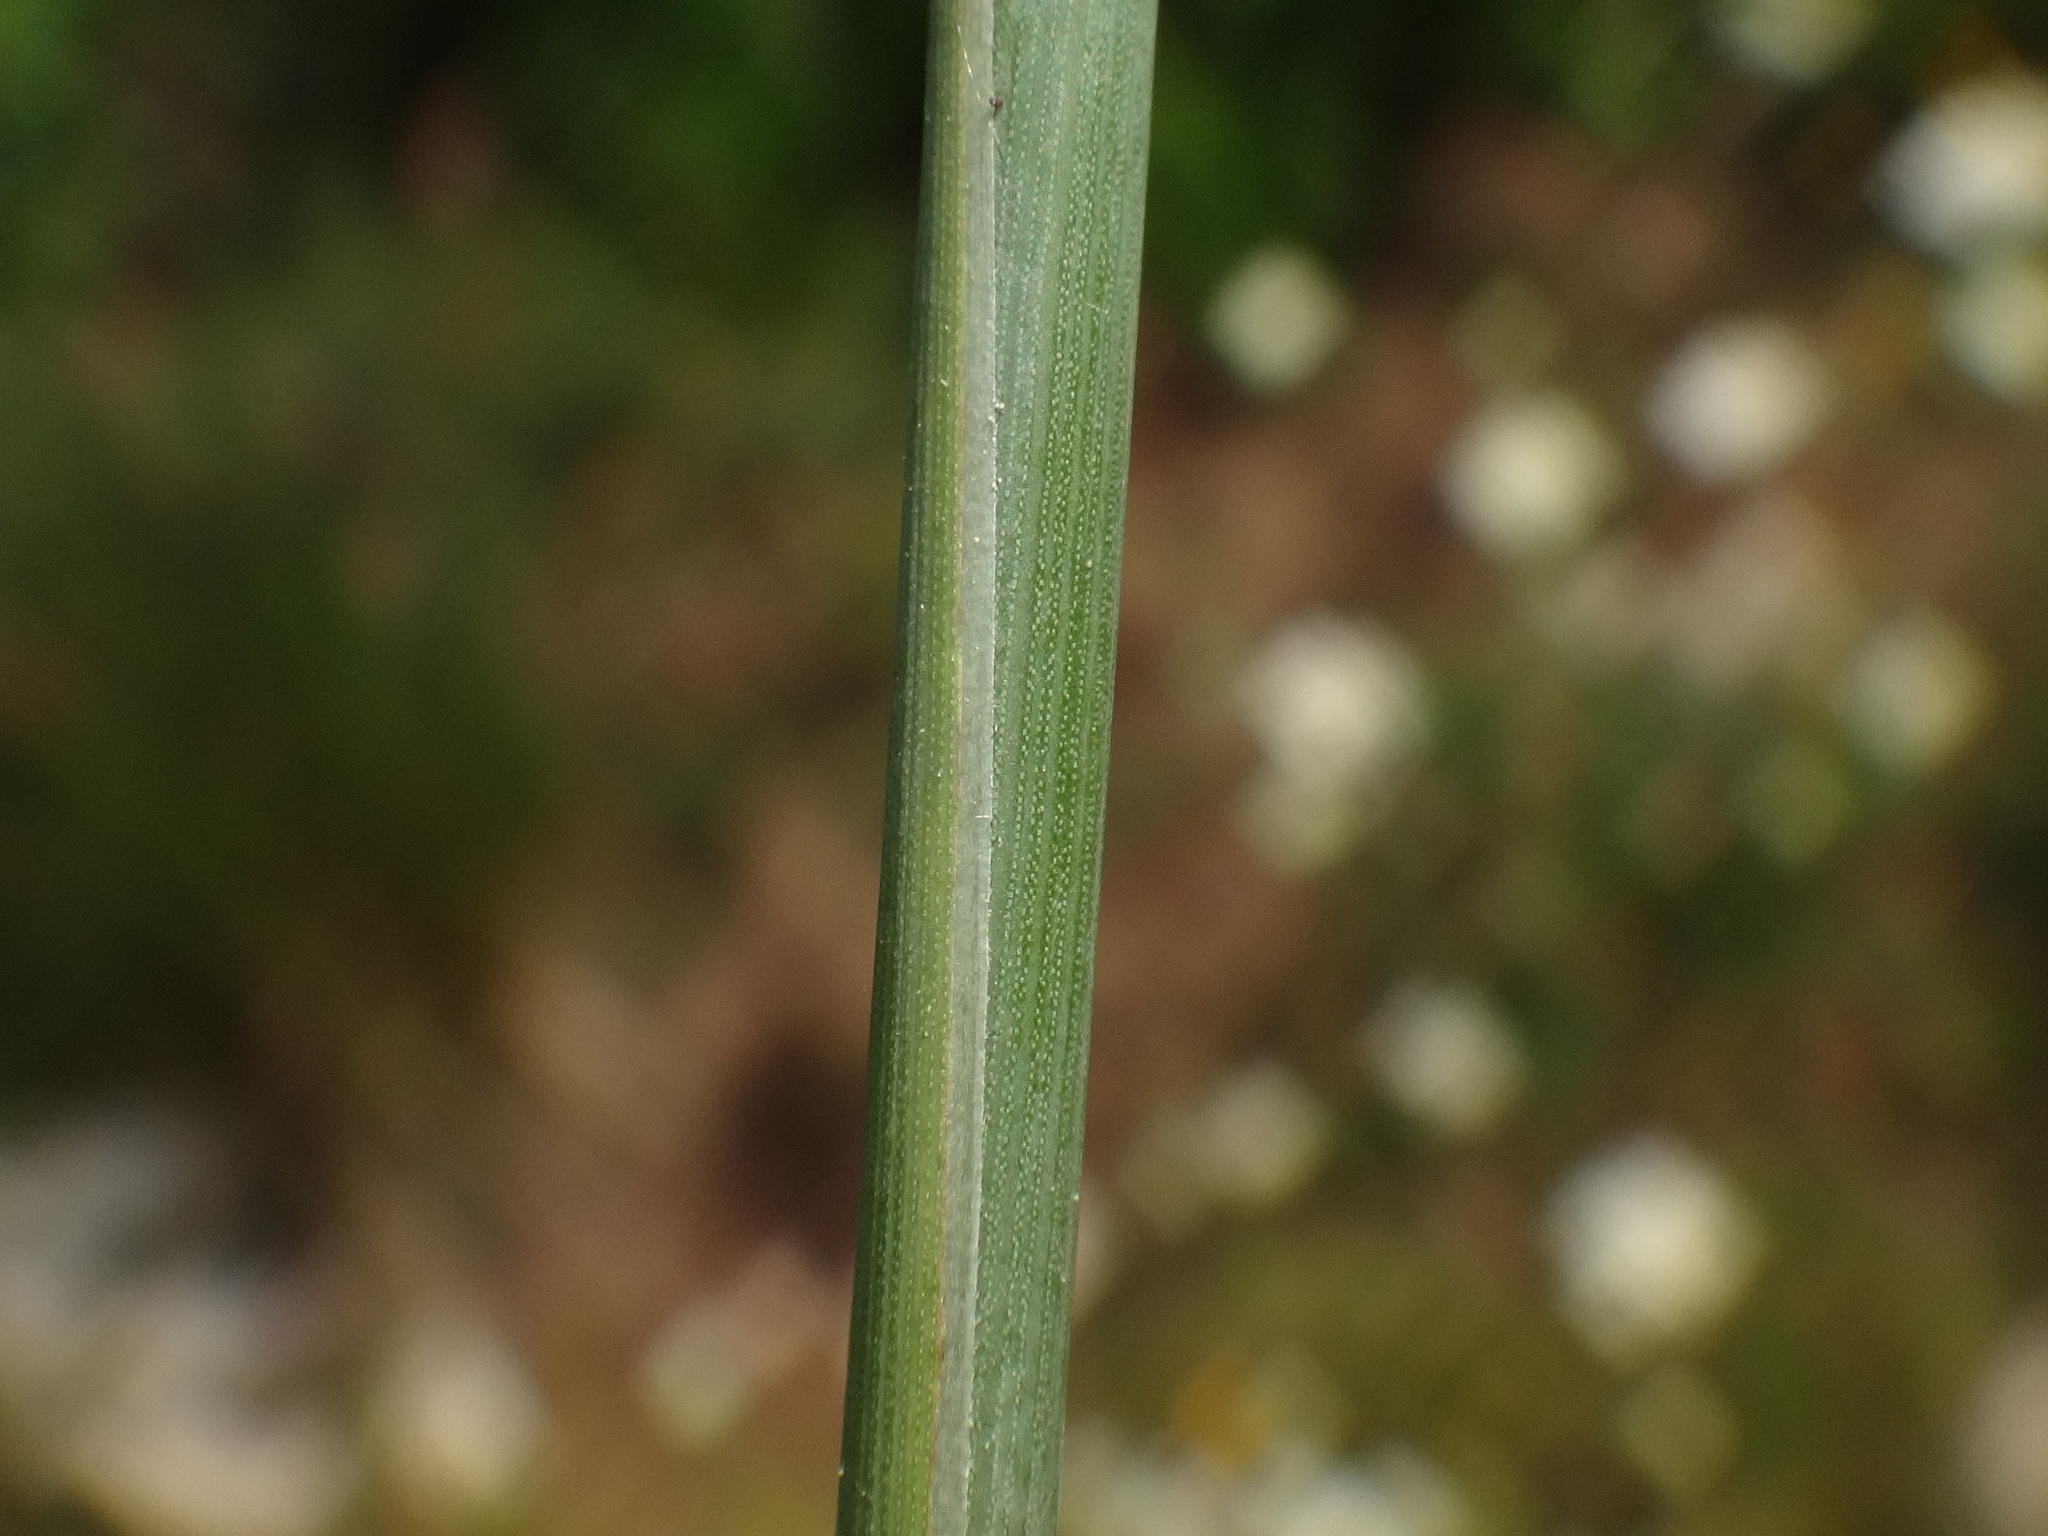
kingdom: Plantae
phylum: Tracheophyta
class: Liliopsida
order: Poales
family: Poaceae
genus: Thinopyrum
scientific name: Thinopyrum intermedium
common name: Intermediate wheatgrass
